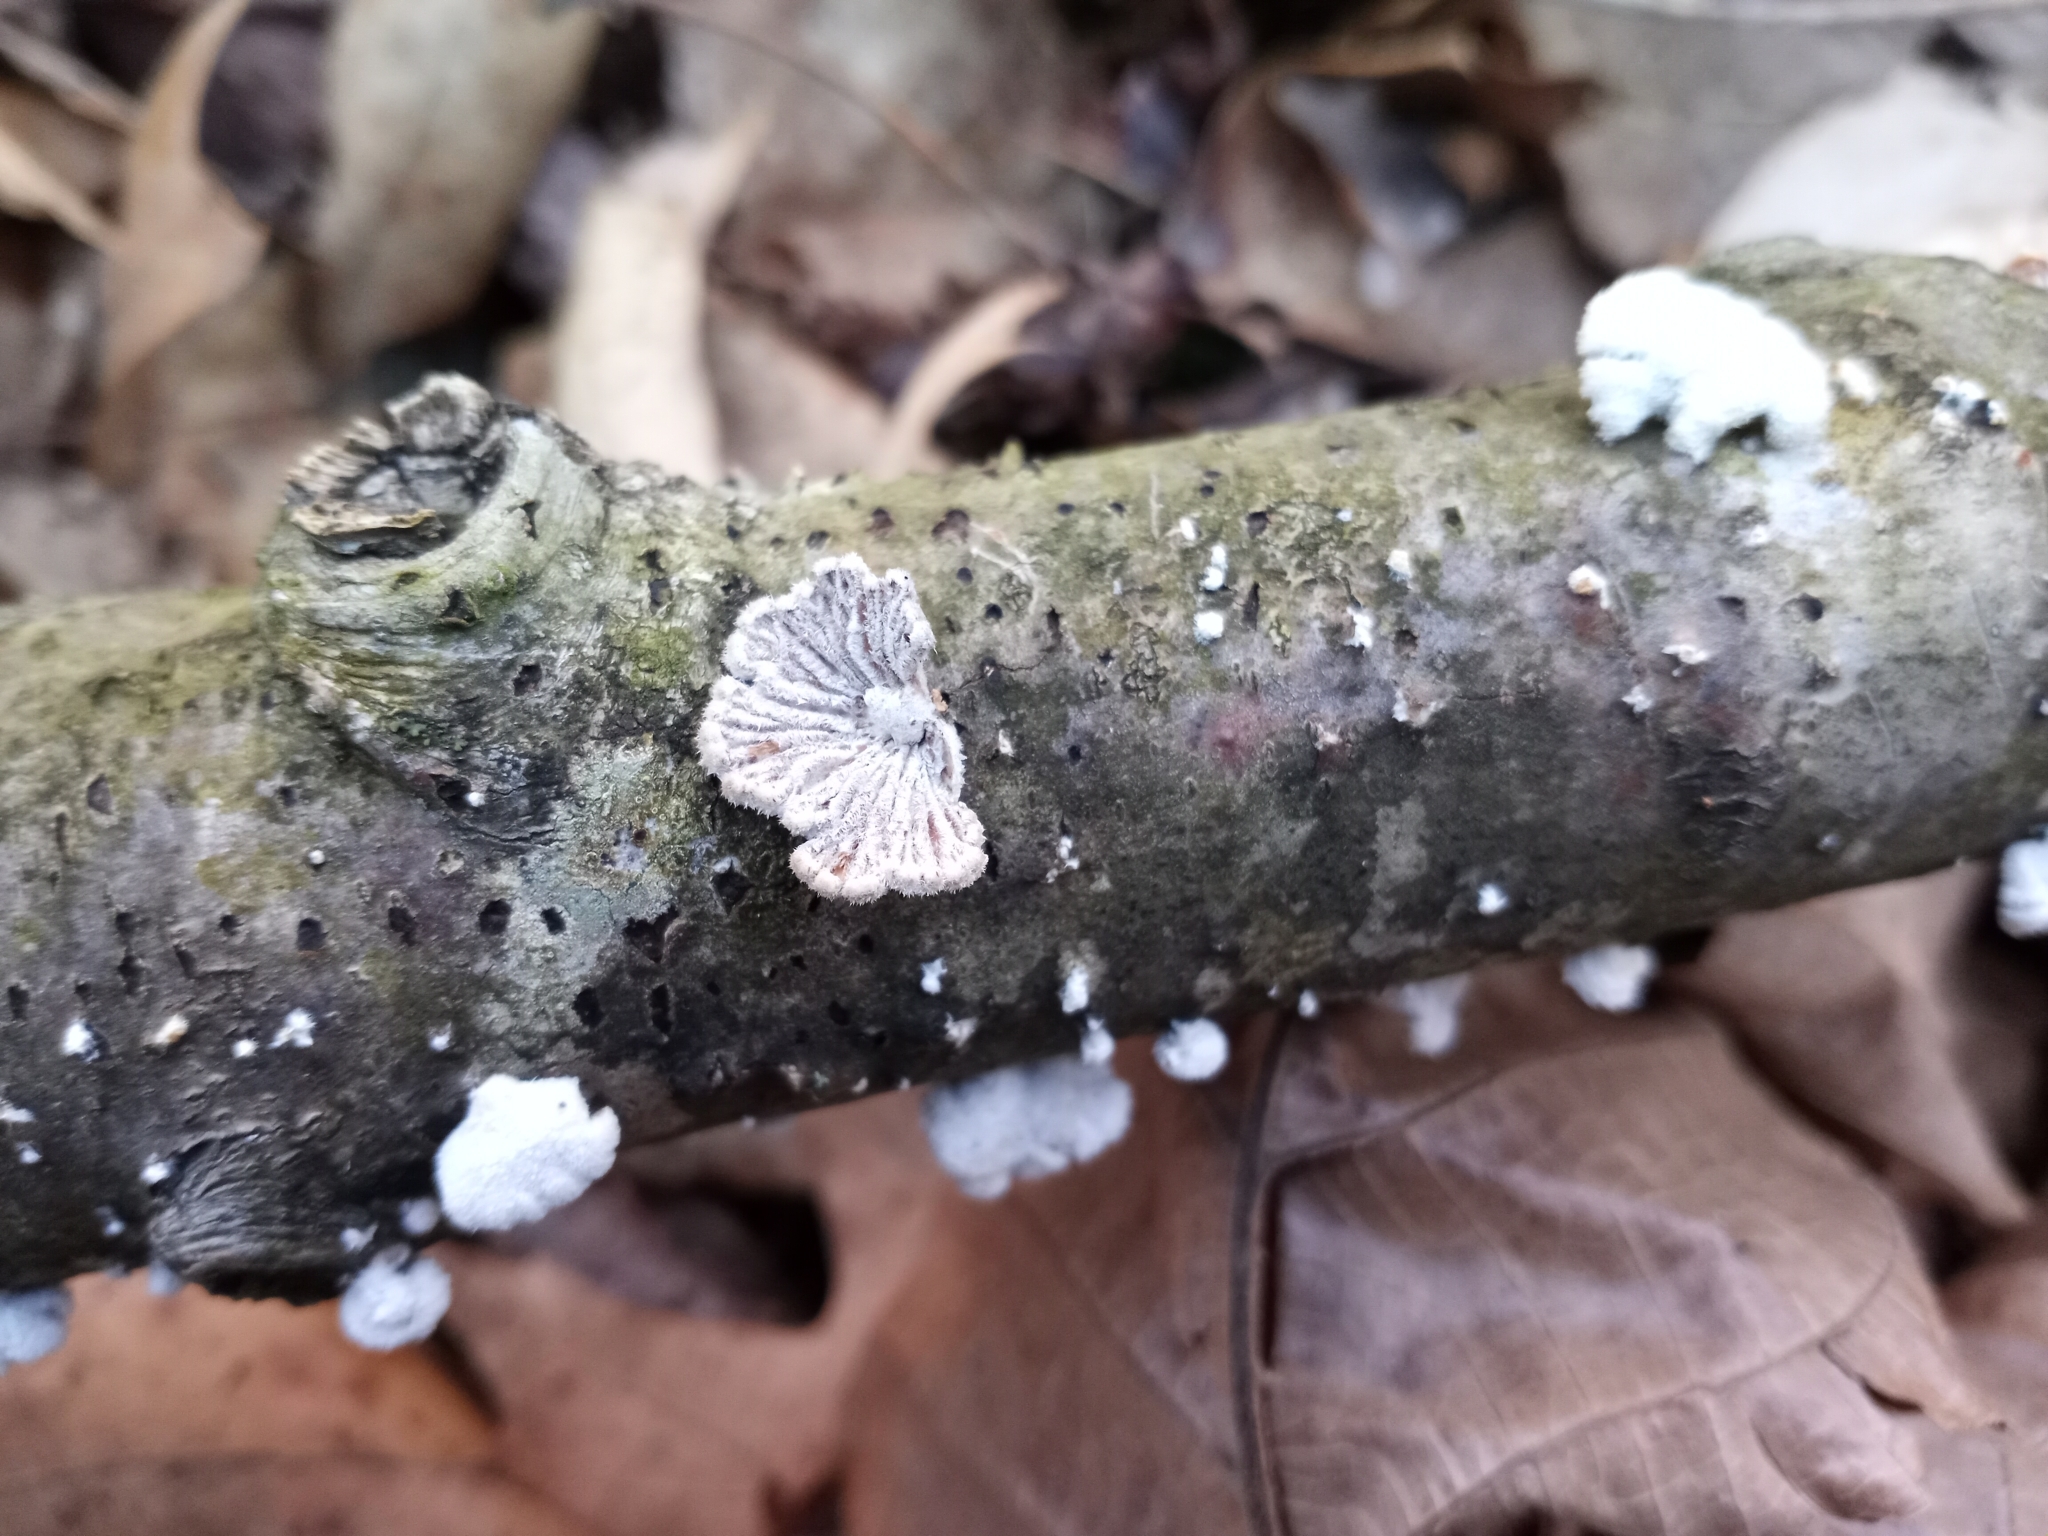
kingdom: Fungi
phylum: Basidiomycota
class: Agaricomycetes
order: Agaricales
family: Schizophyllaceae
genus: Schizophyllum
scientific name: Schizophyllum commune
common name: Common porecrust
